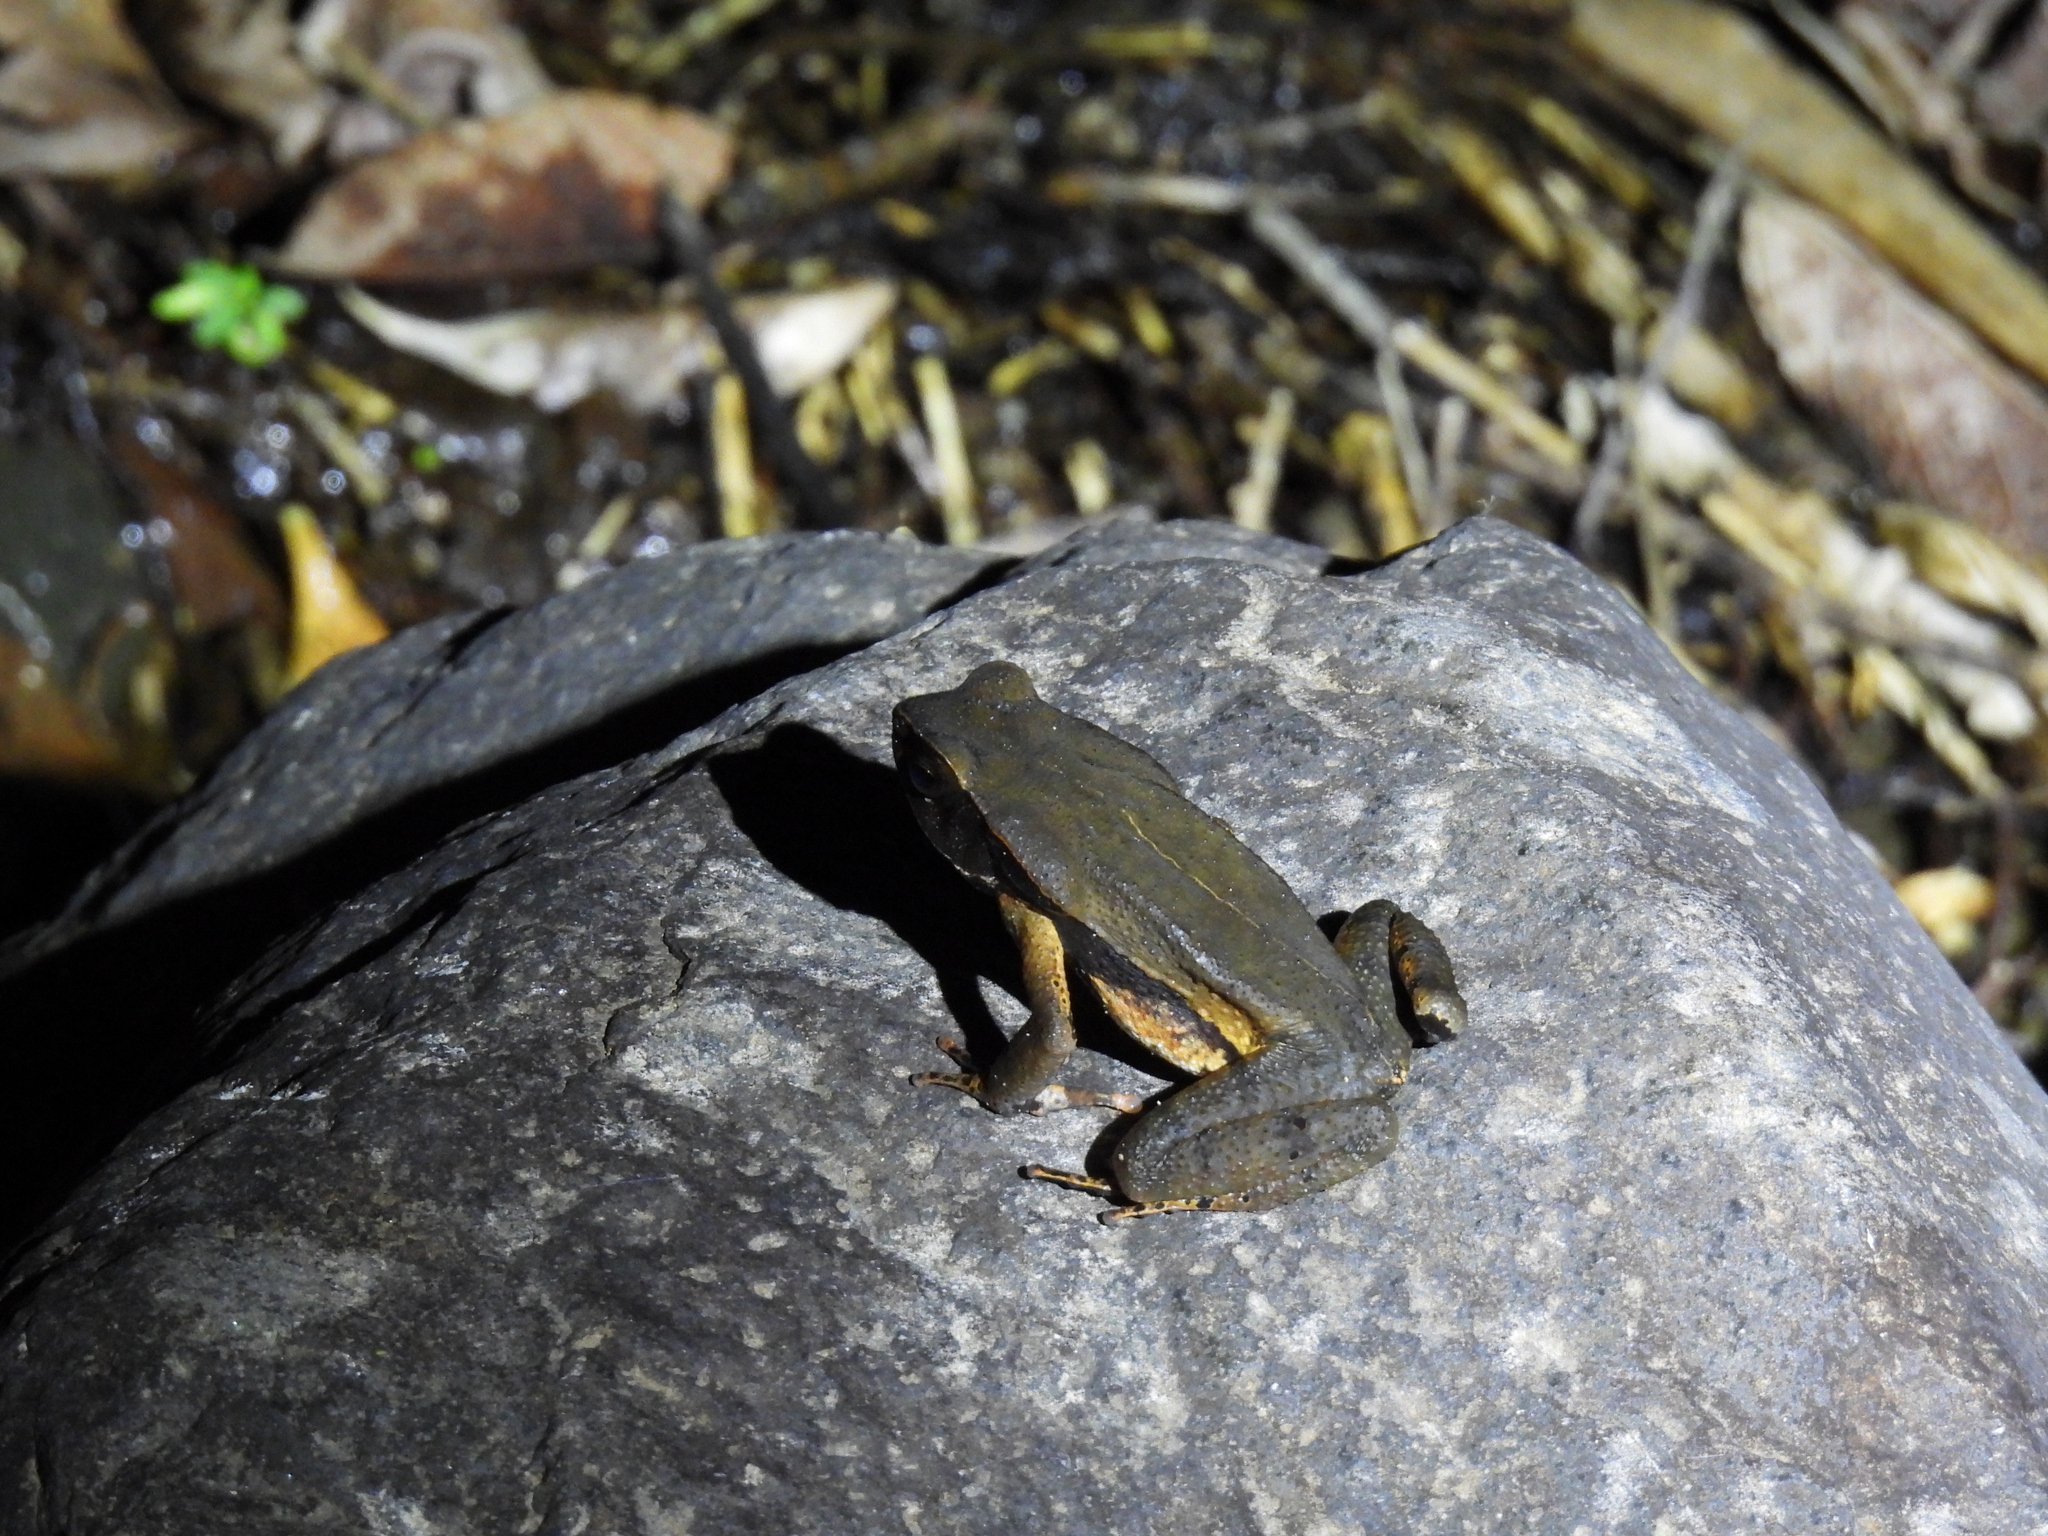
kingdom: Animalia
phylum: Chordata
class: Amphibia
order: Anura
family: Bufonidae
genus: Rhaebo
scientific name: Rhaebo haematiticus
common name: Truando toad
